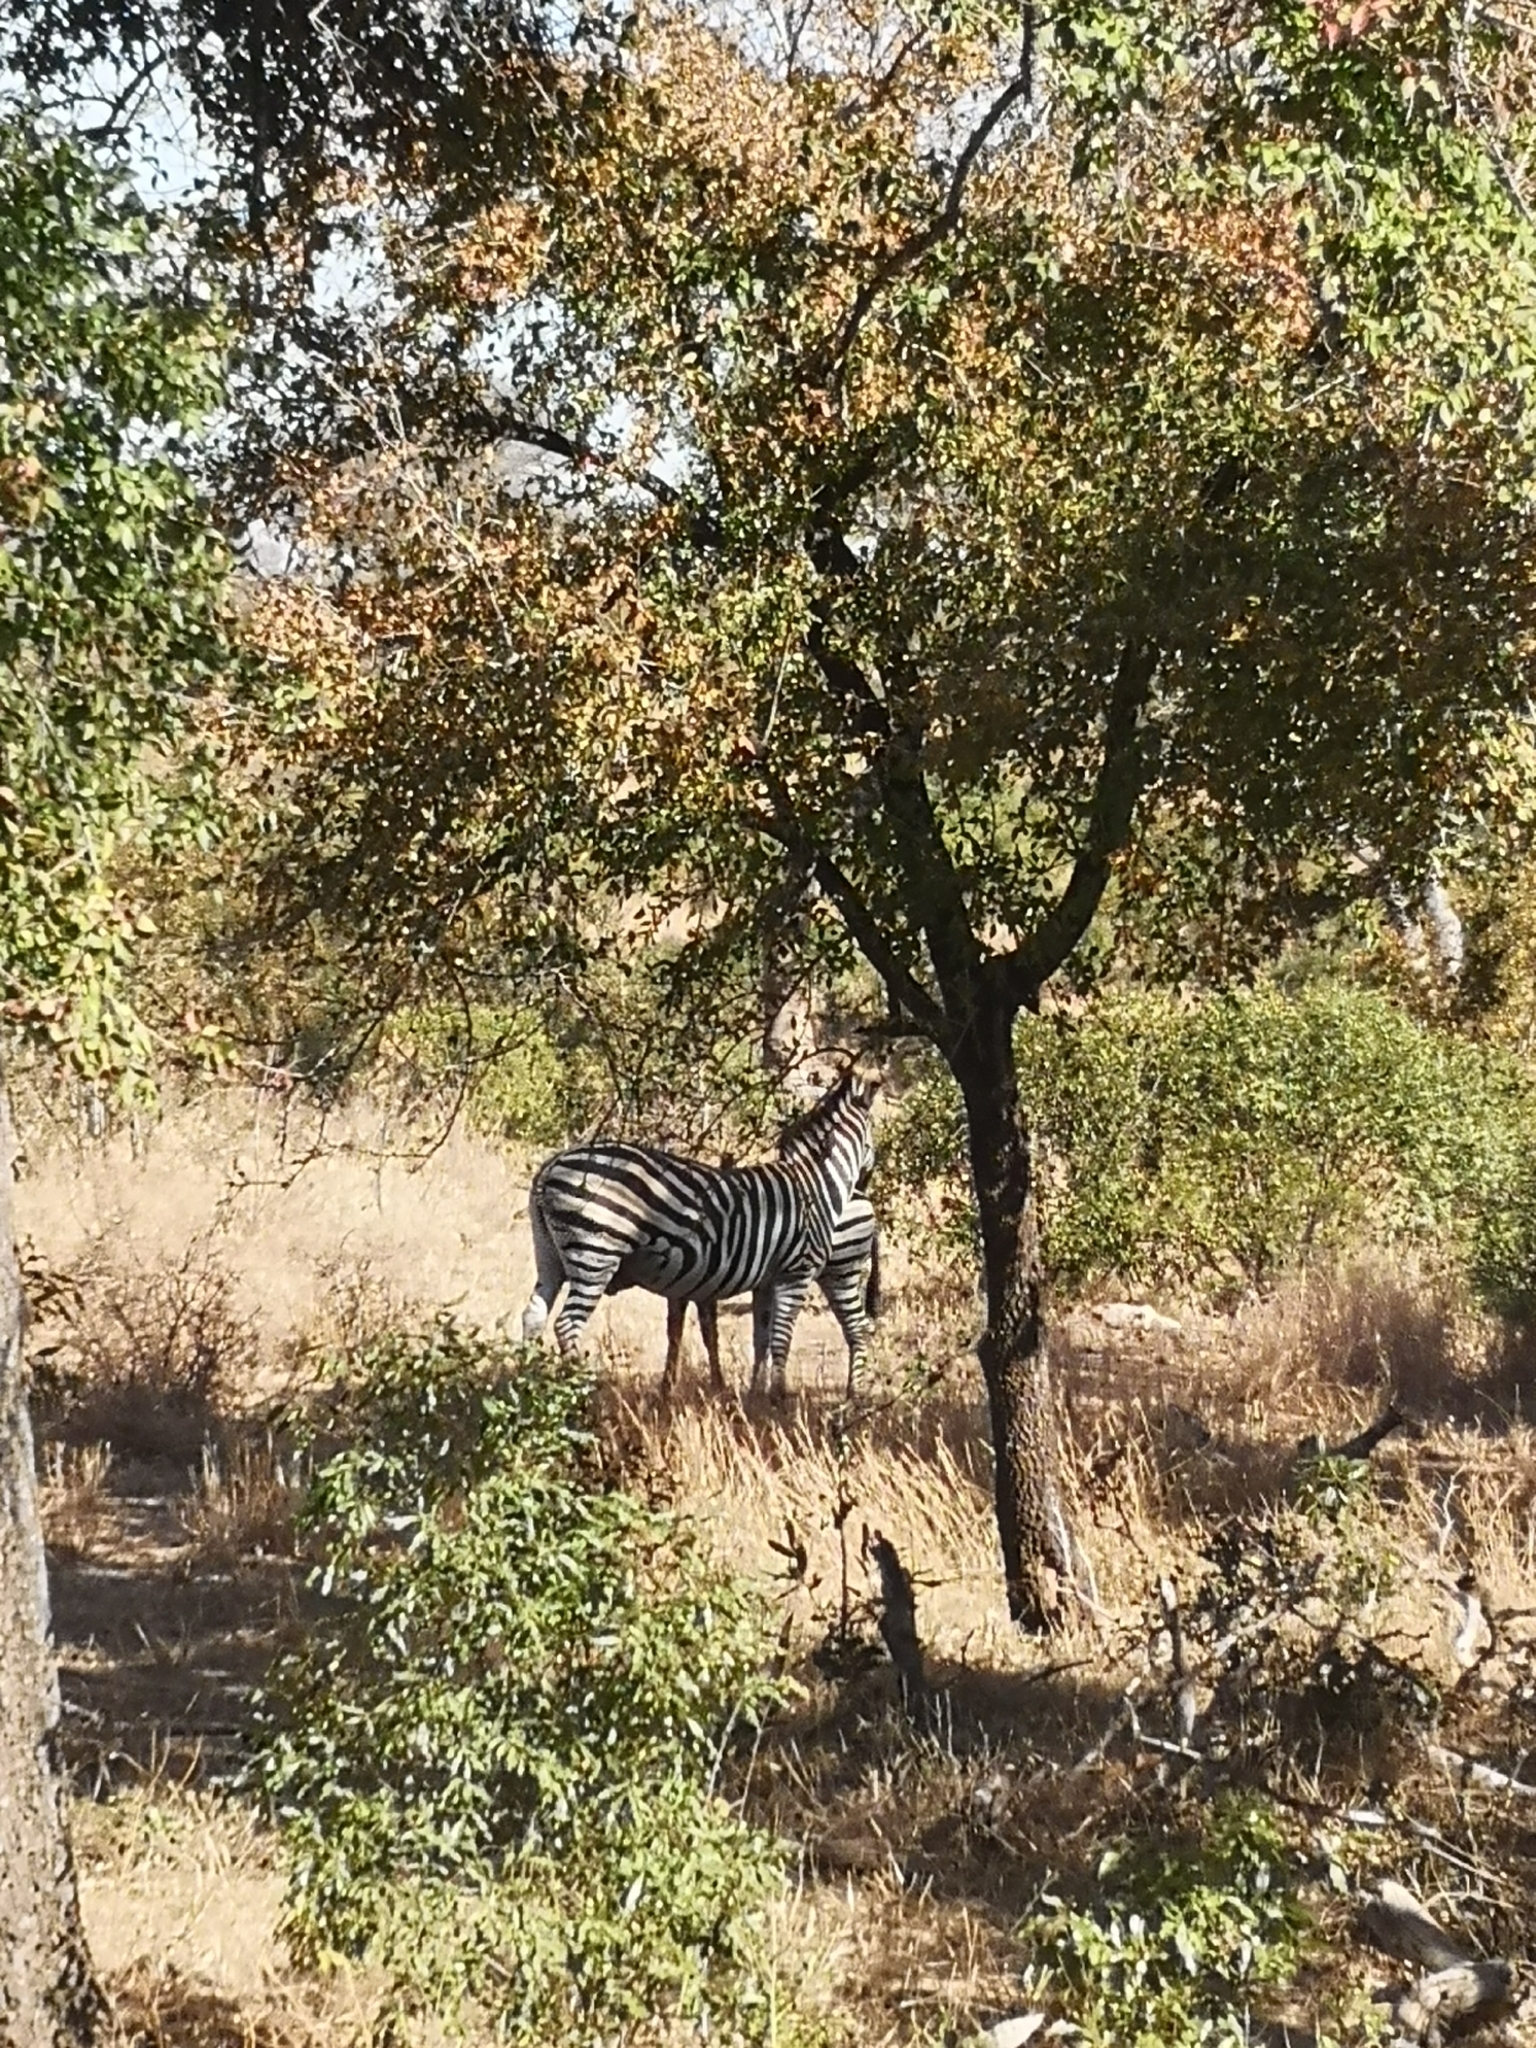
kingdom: Animalia
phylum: Chordata
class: Mammalia
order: Perissodactyla
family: Equidae
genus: Equus
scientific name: Equus quagga
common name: Plains zebra
